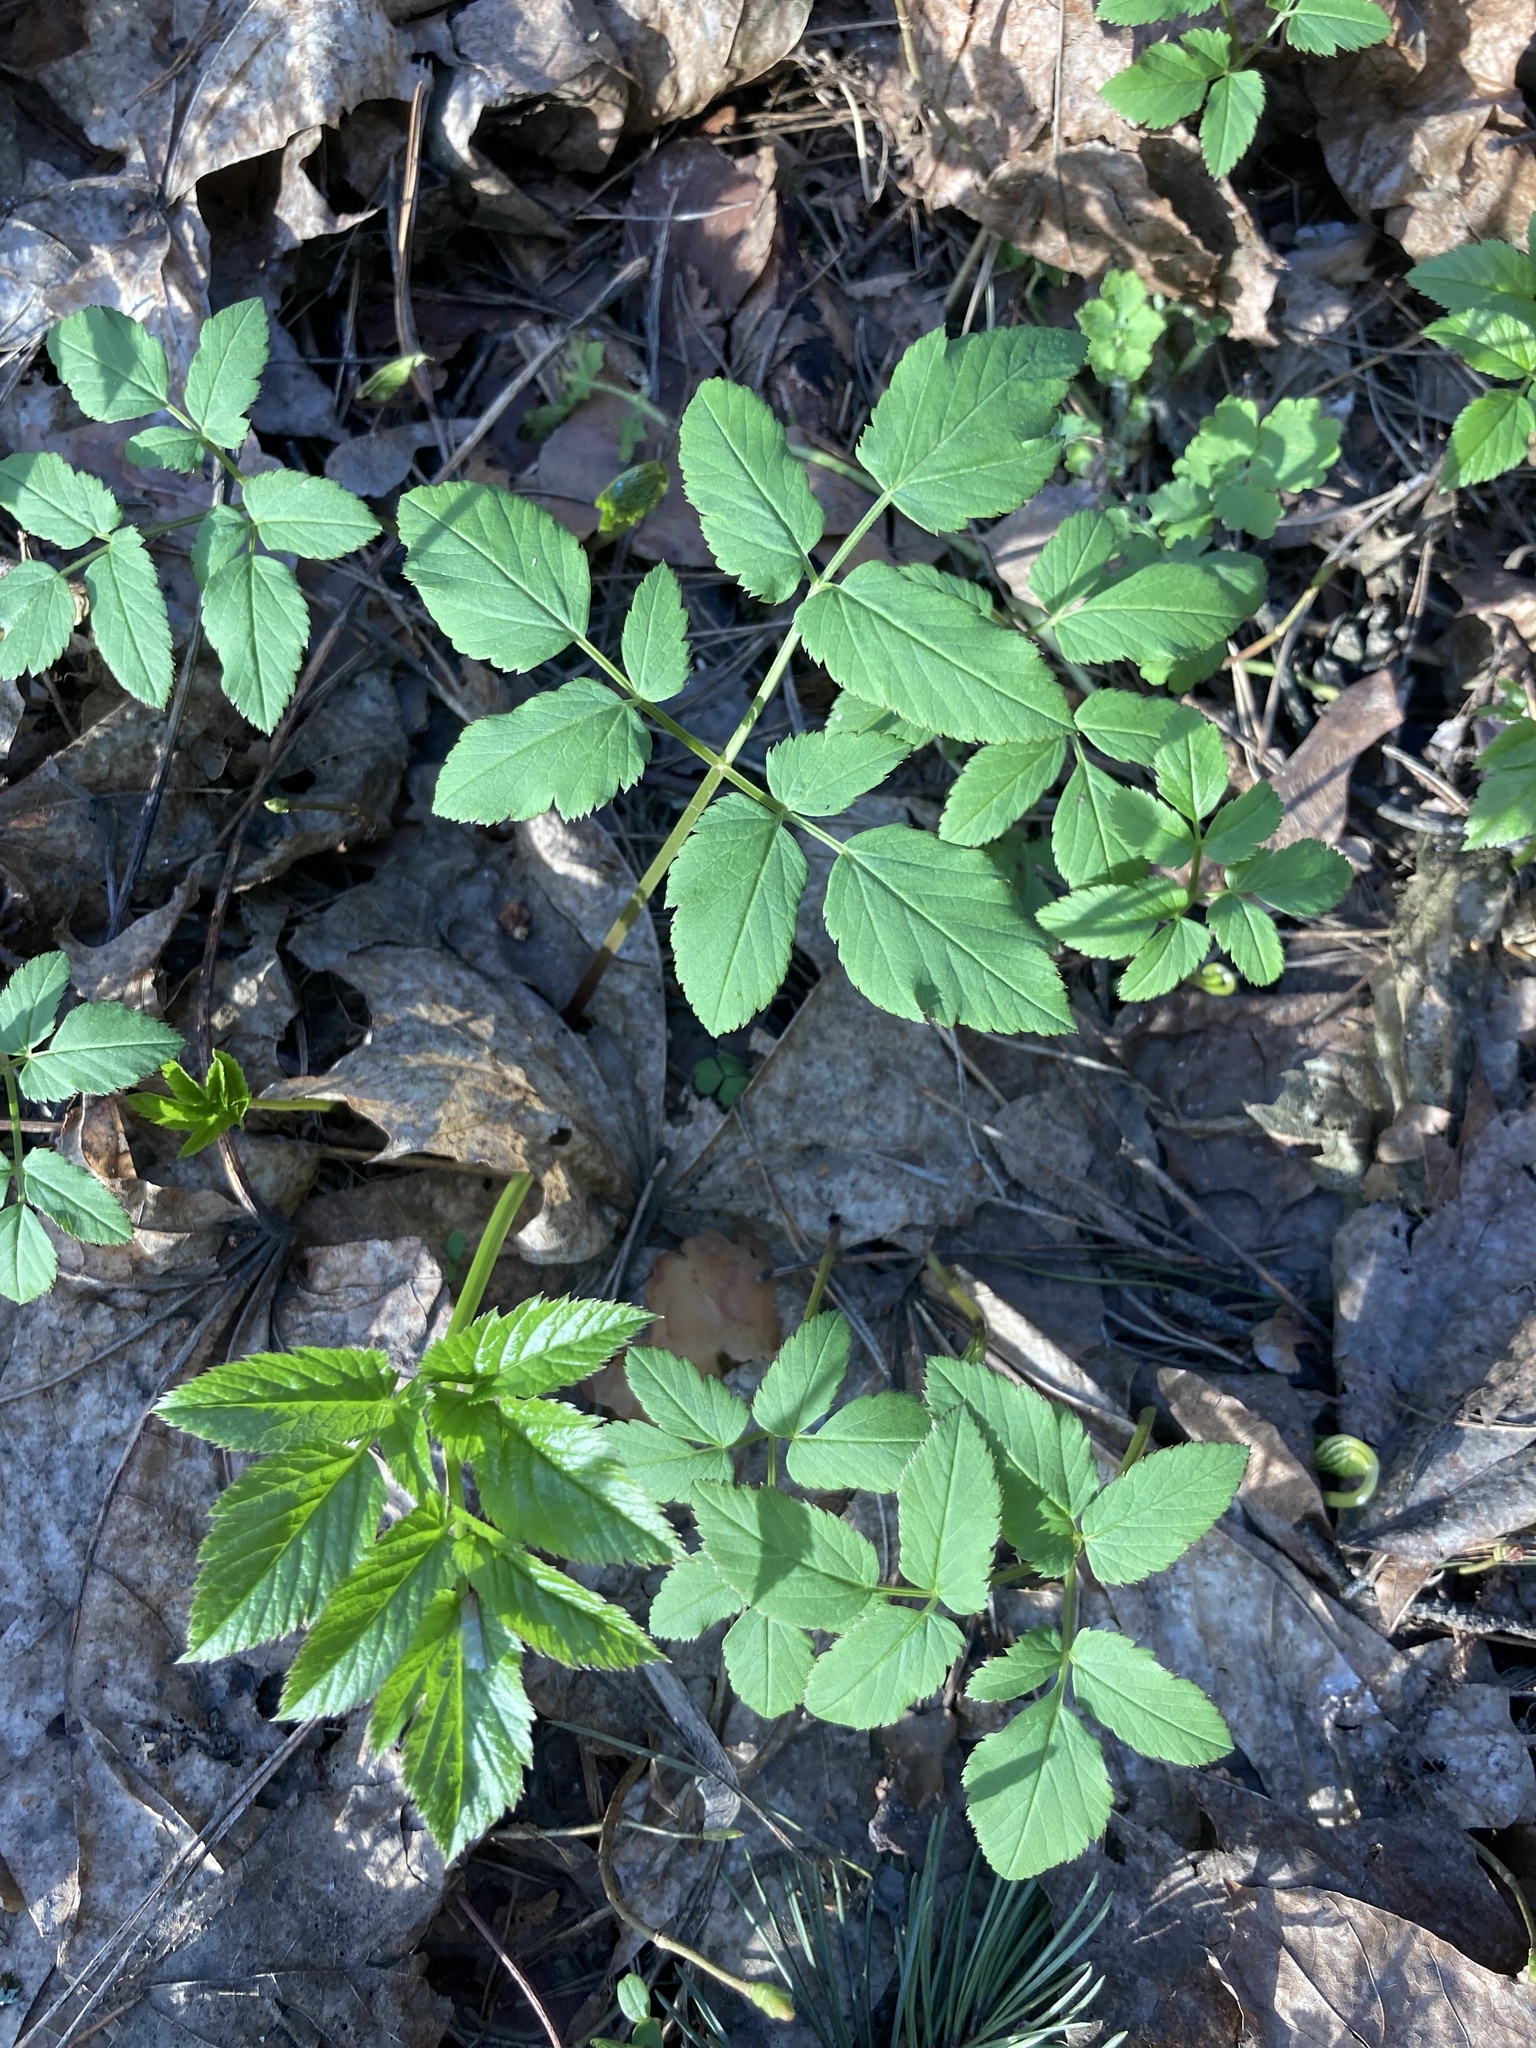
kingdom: Plantae
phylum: Tracheophyta
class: Magnoliopsida
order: Apiales
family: Apiaceae
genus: Aegopodium
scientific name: Aegopodium podagraria
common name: Ground-elder
